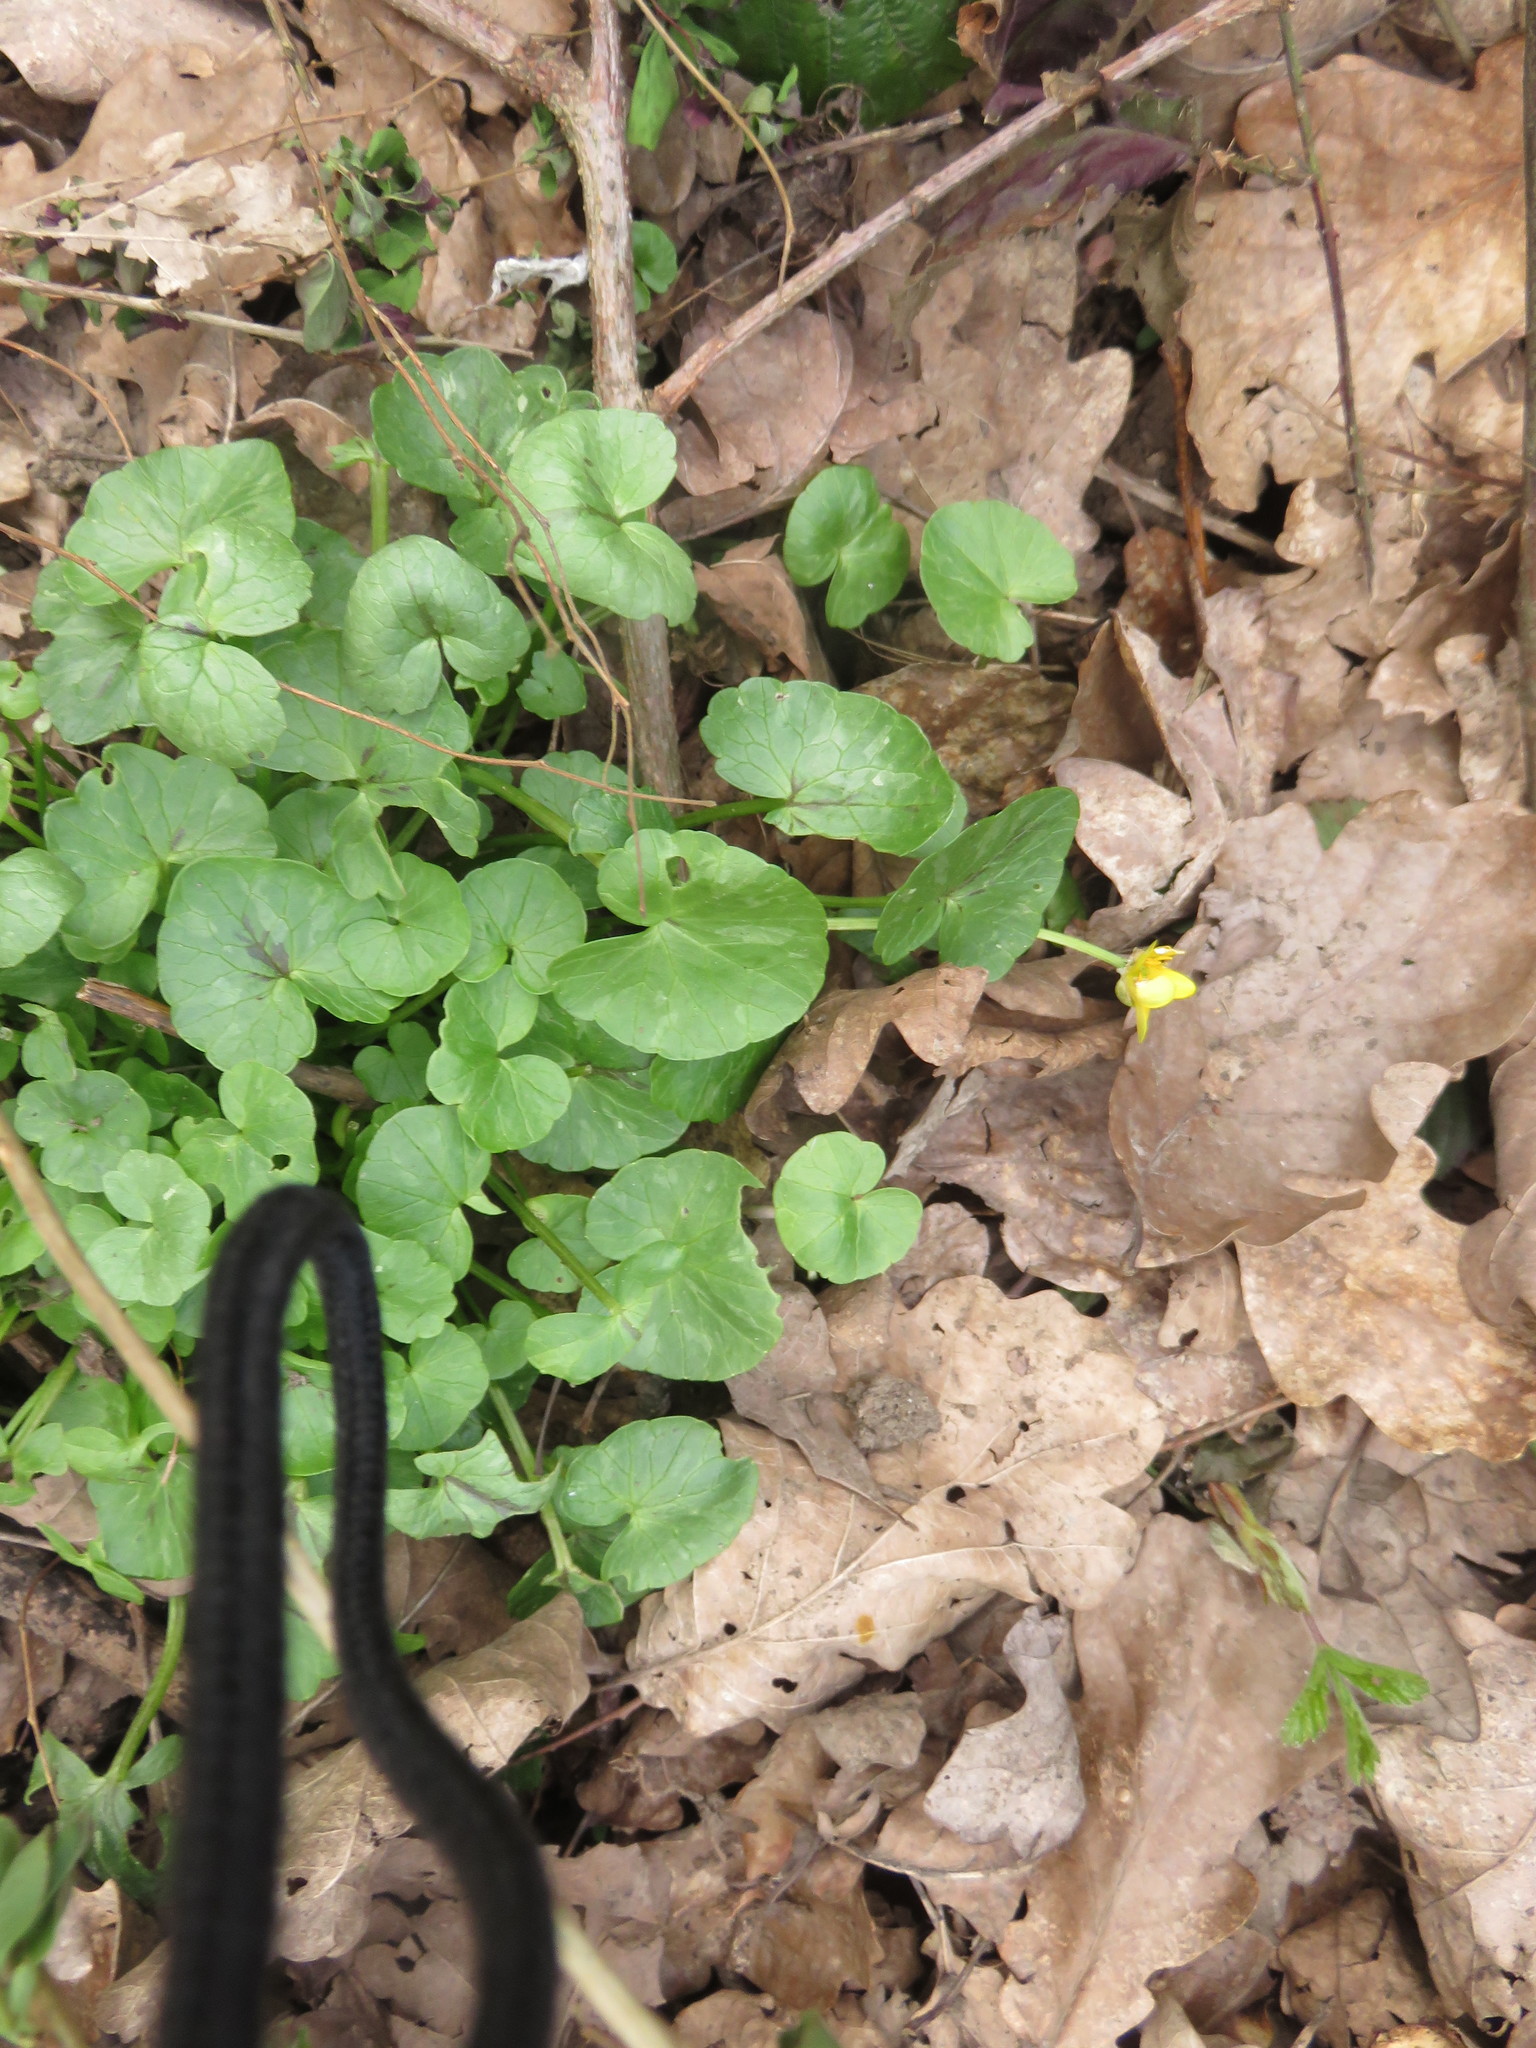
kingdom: Plantae
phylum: Tracheophyta
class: Magnoliopsida
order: Ranunculales
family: Ranunculaceae
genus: Ficaria
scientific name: Ficaria verna
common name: Lesser celandine
